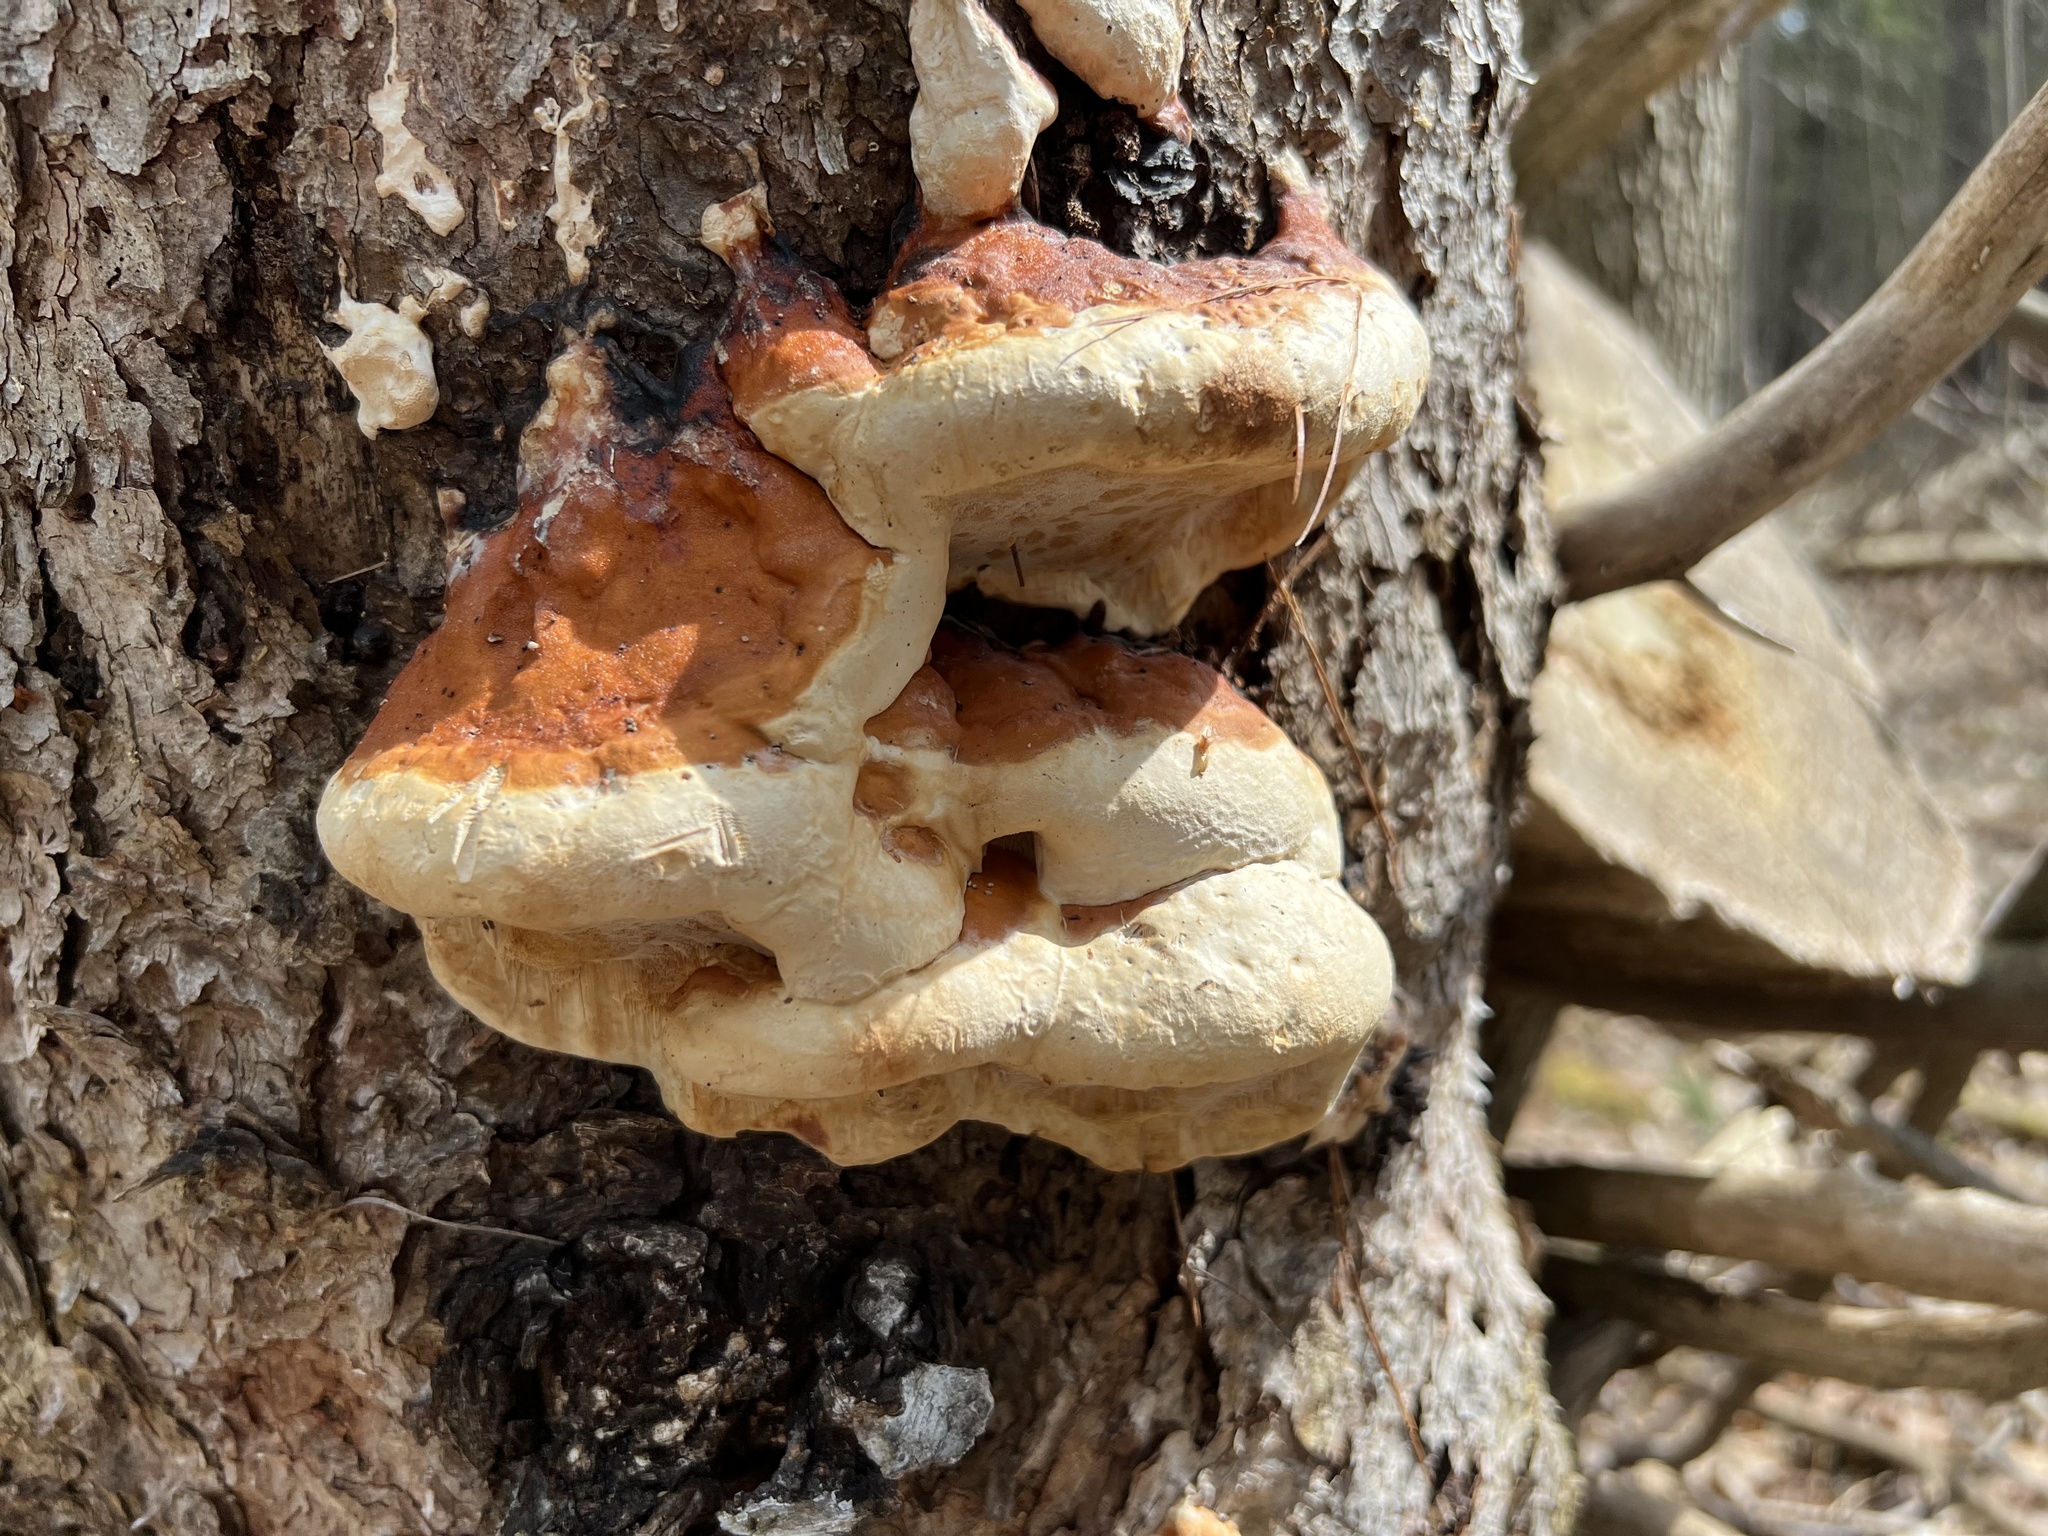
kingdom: Fungi
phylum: Basidiomycota
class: Agaricomycetes
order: Polyporales
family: Fomitopsidaceae
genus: Fomitopsis
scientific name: Fomitopsis mounceae
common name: Northern red belt
